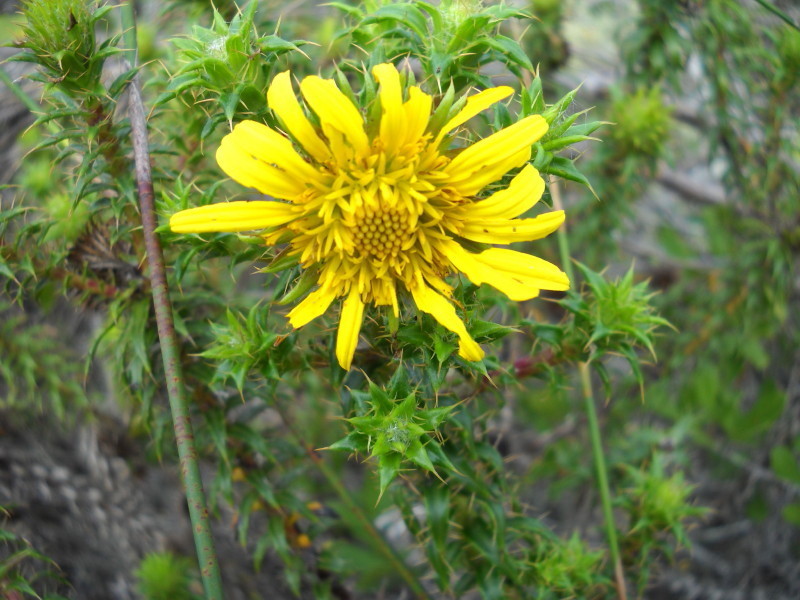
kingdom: Plantae
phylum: Tracheophyta
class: Magnoliopsida
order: Asterales
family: Asteraceae
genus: Cullumia
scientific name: Cullumia carlinoides
